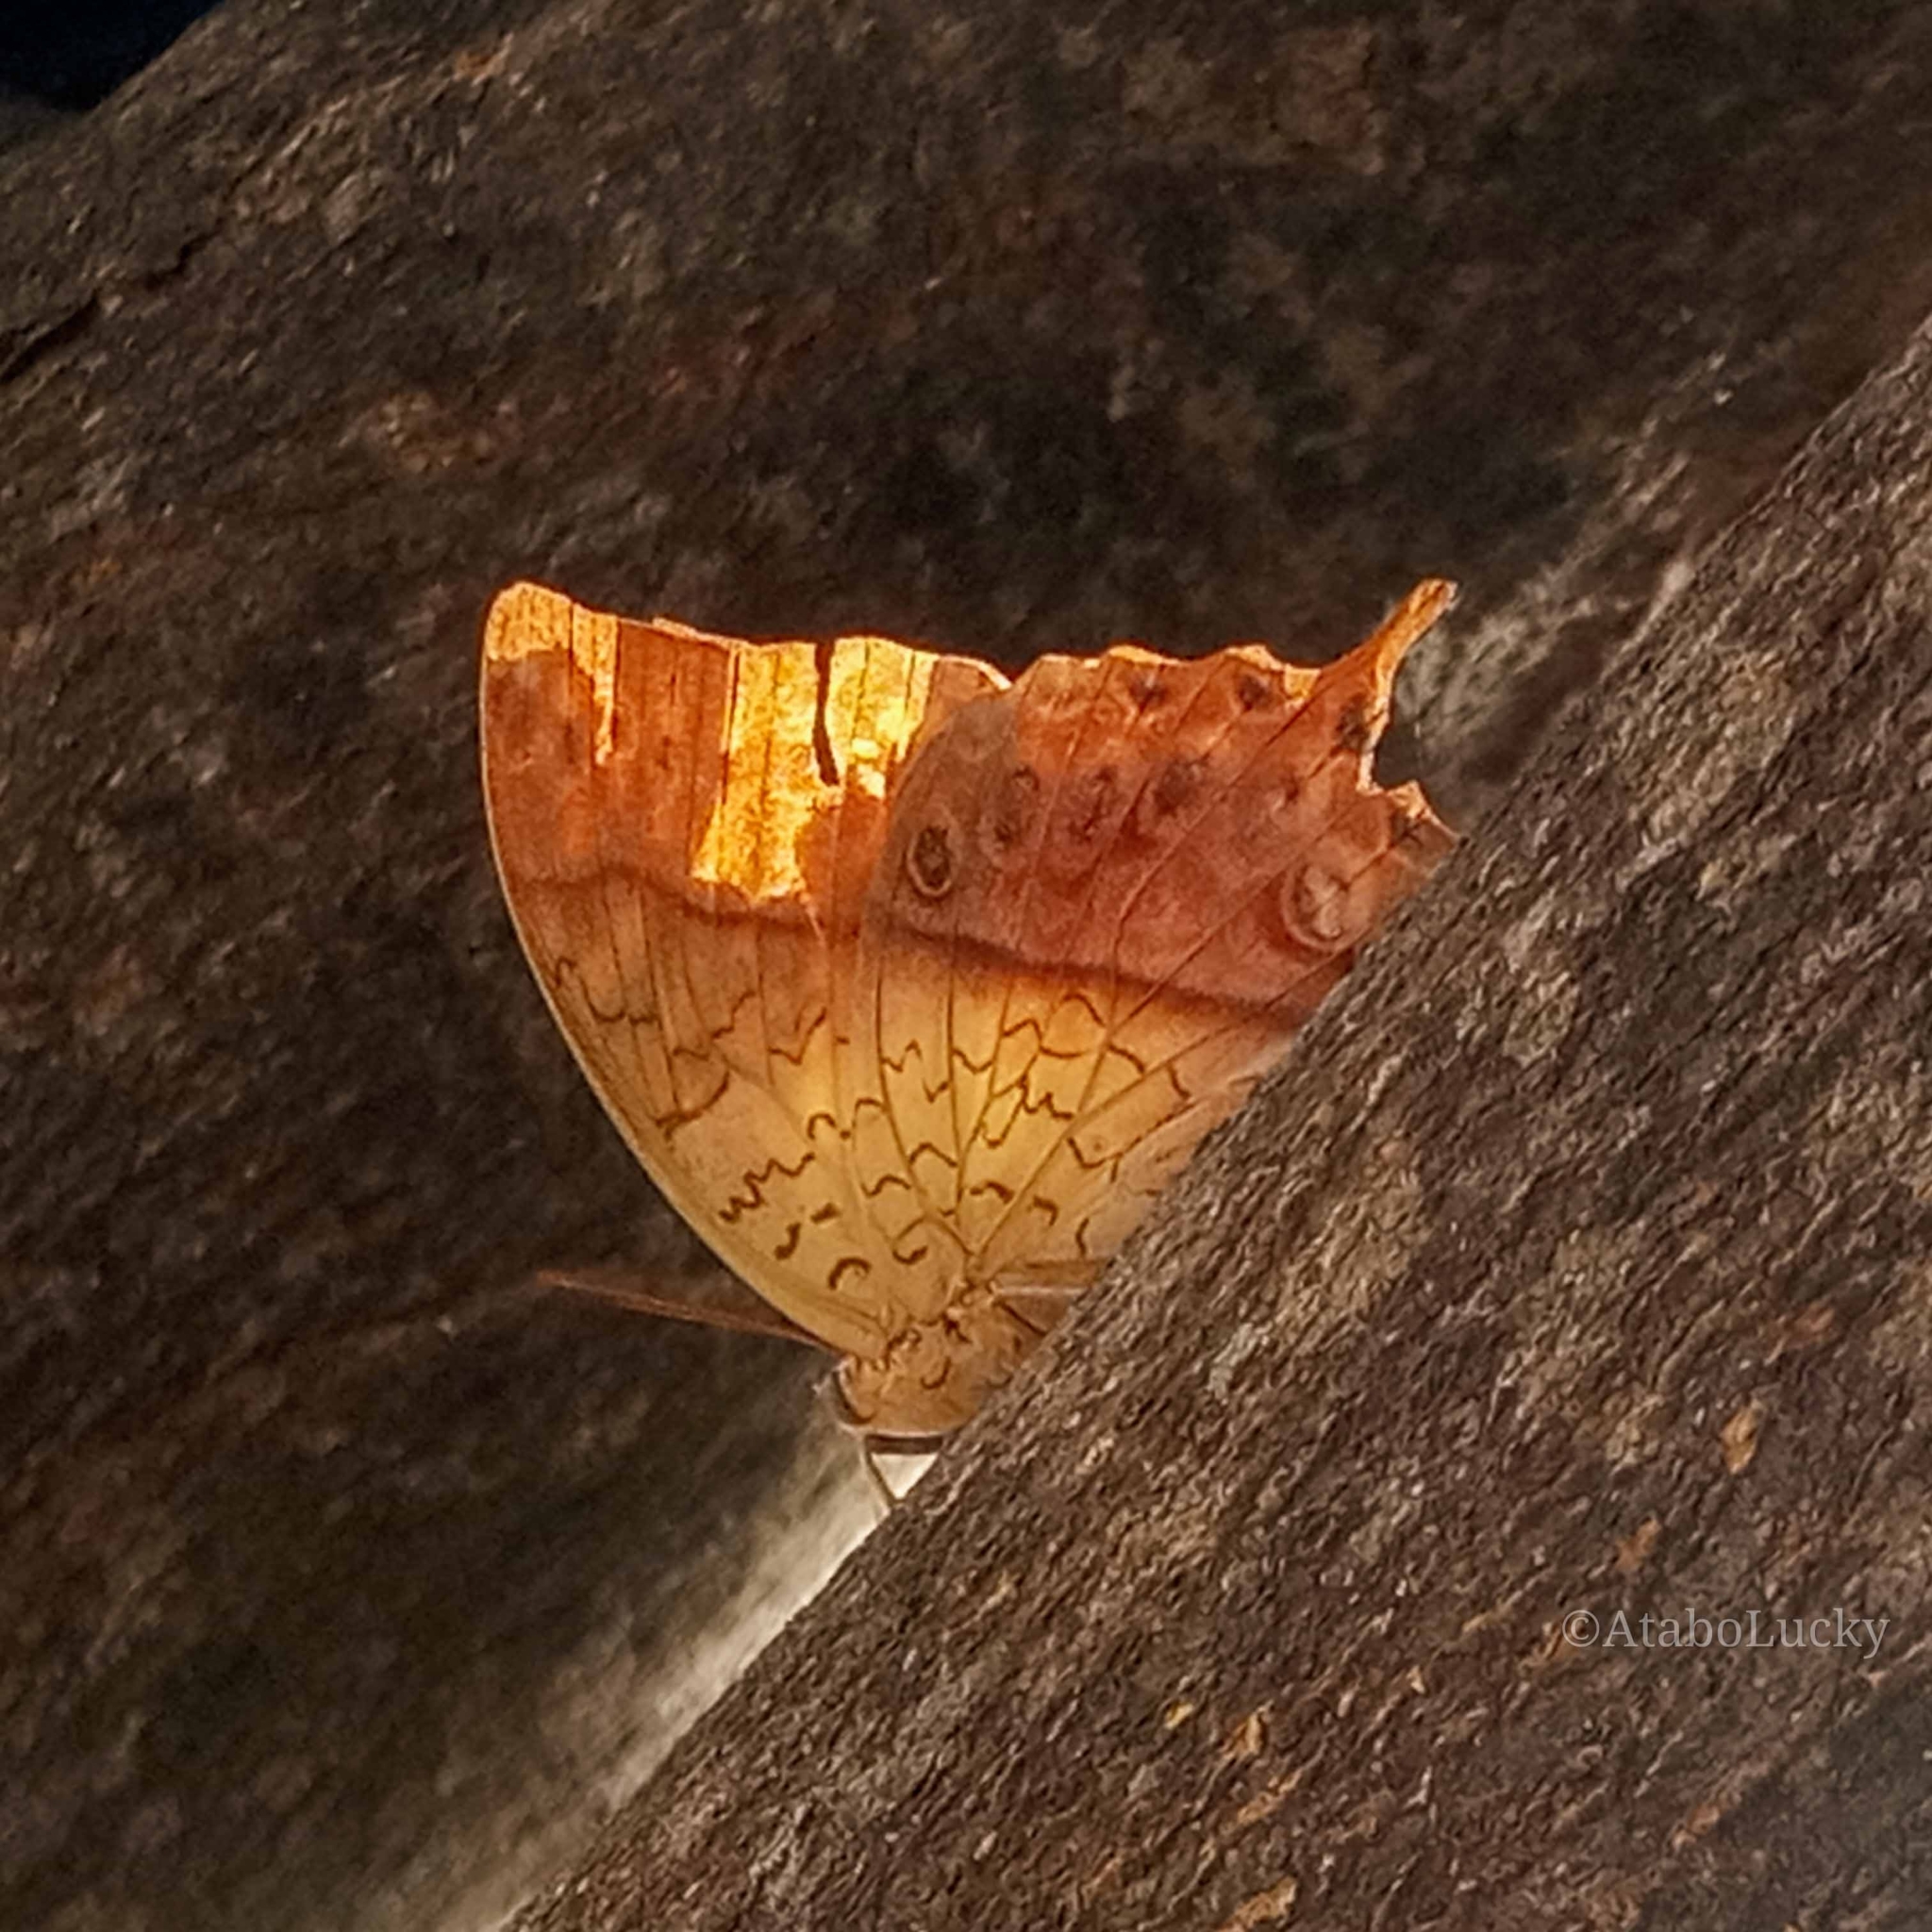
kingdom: Animalia
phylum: Arthropoda
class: Insecta
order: Lepidoptera
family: Nymphalidae
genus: Charaxes
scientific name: Charaxes varanes
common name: Common pearl charaxes
